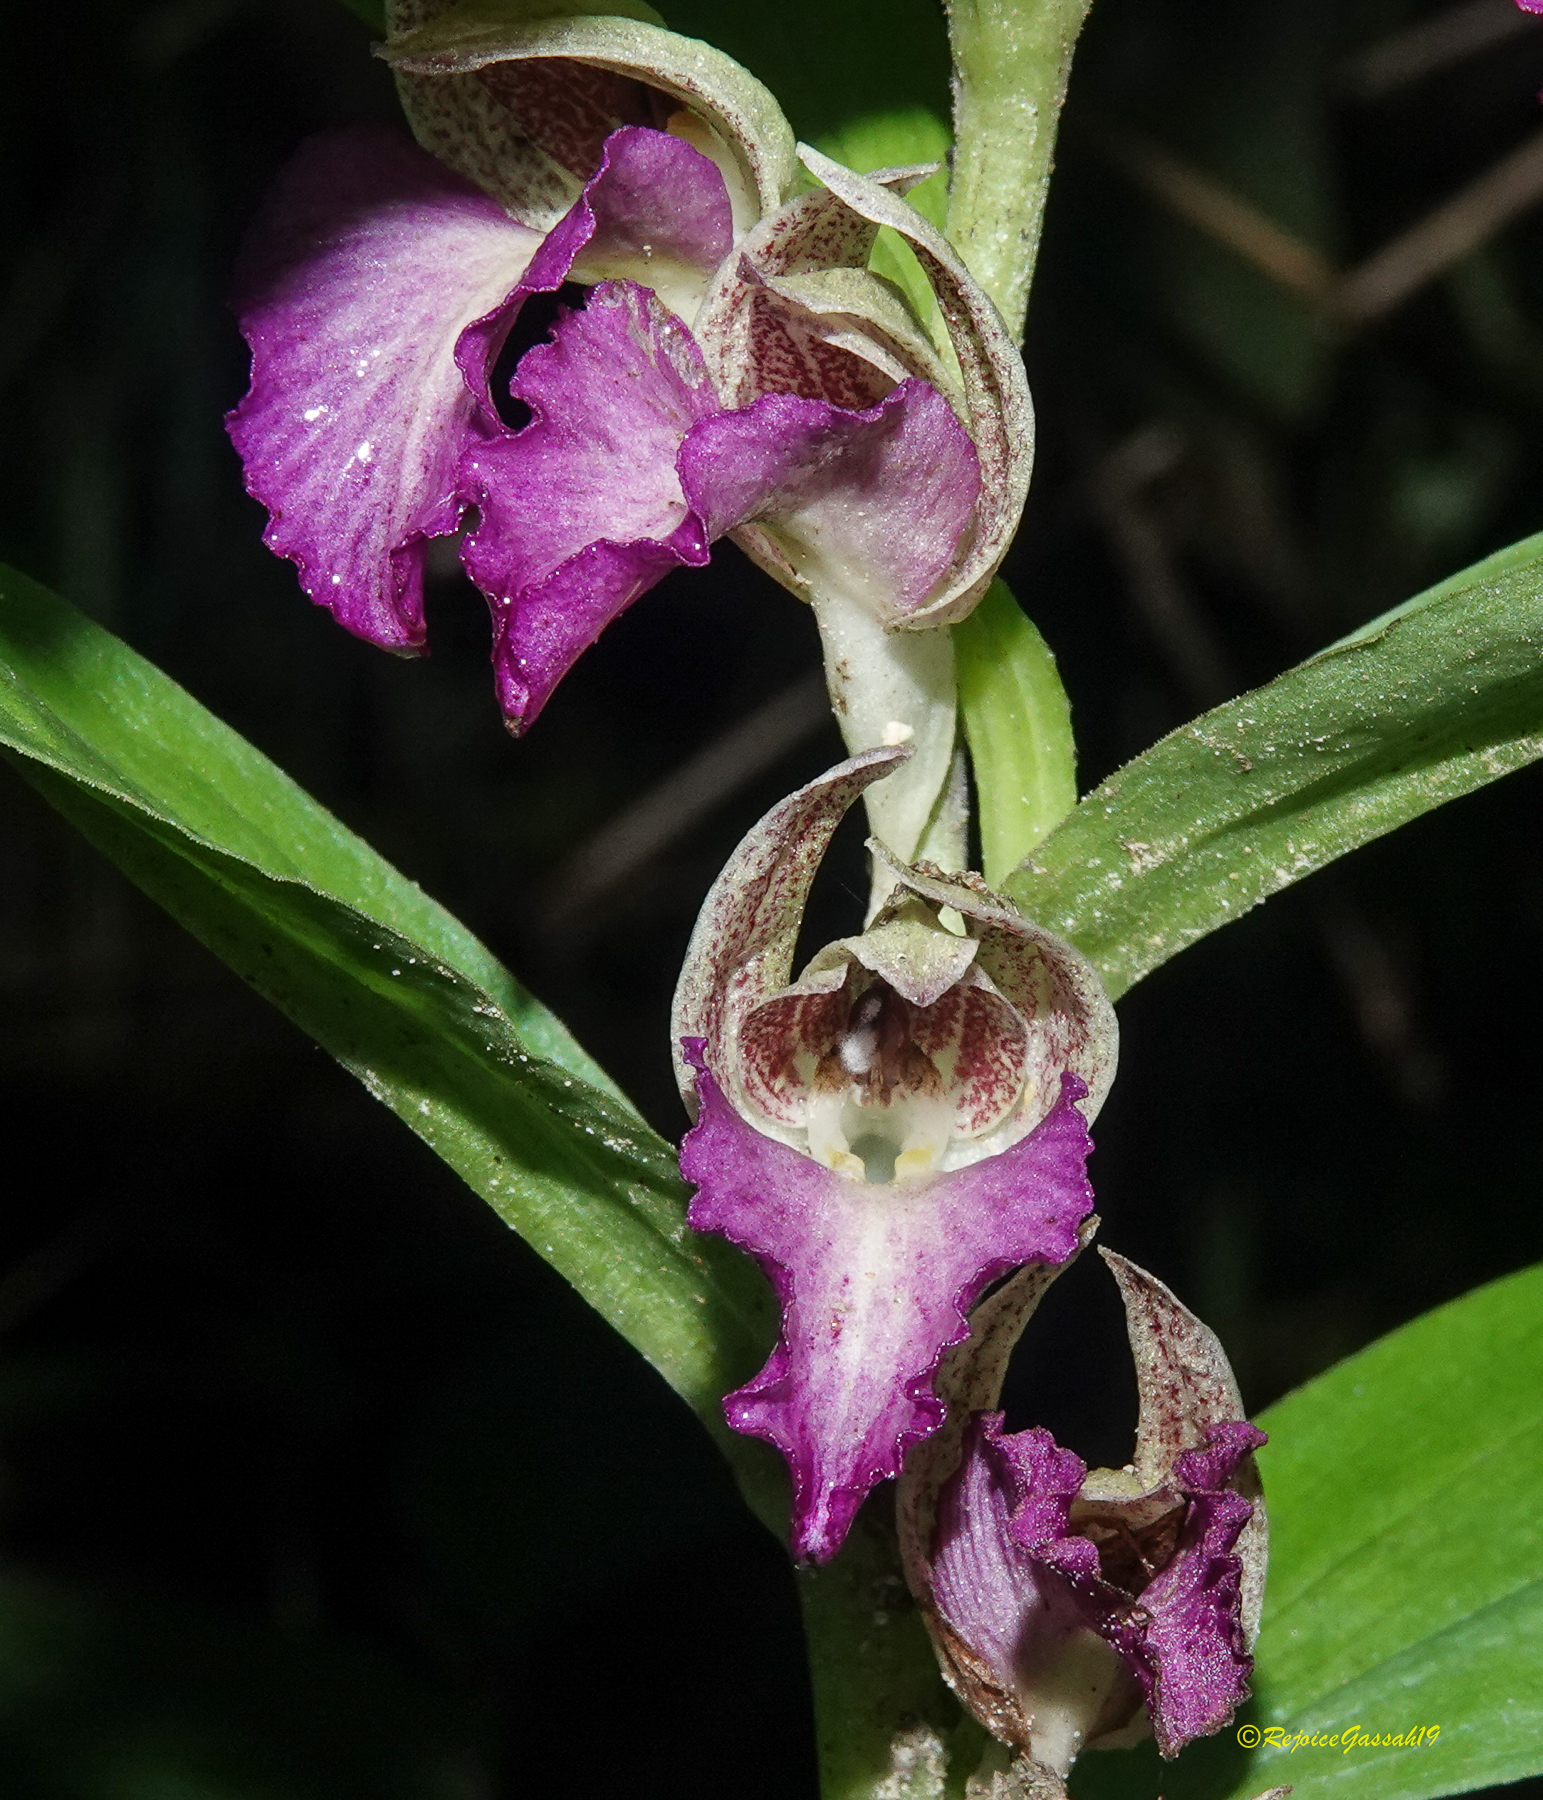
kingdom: Plantae
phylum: Tracheophyta
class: Liliopsida
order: Asparagales
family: Orchidaceae
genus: Brachycorythis
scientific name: Brachycorythis helferi
